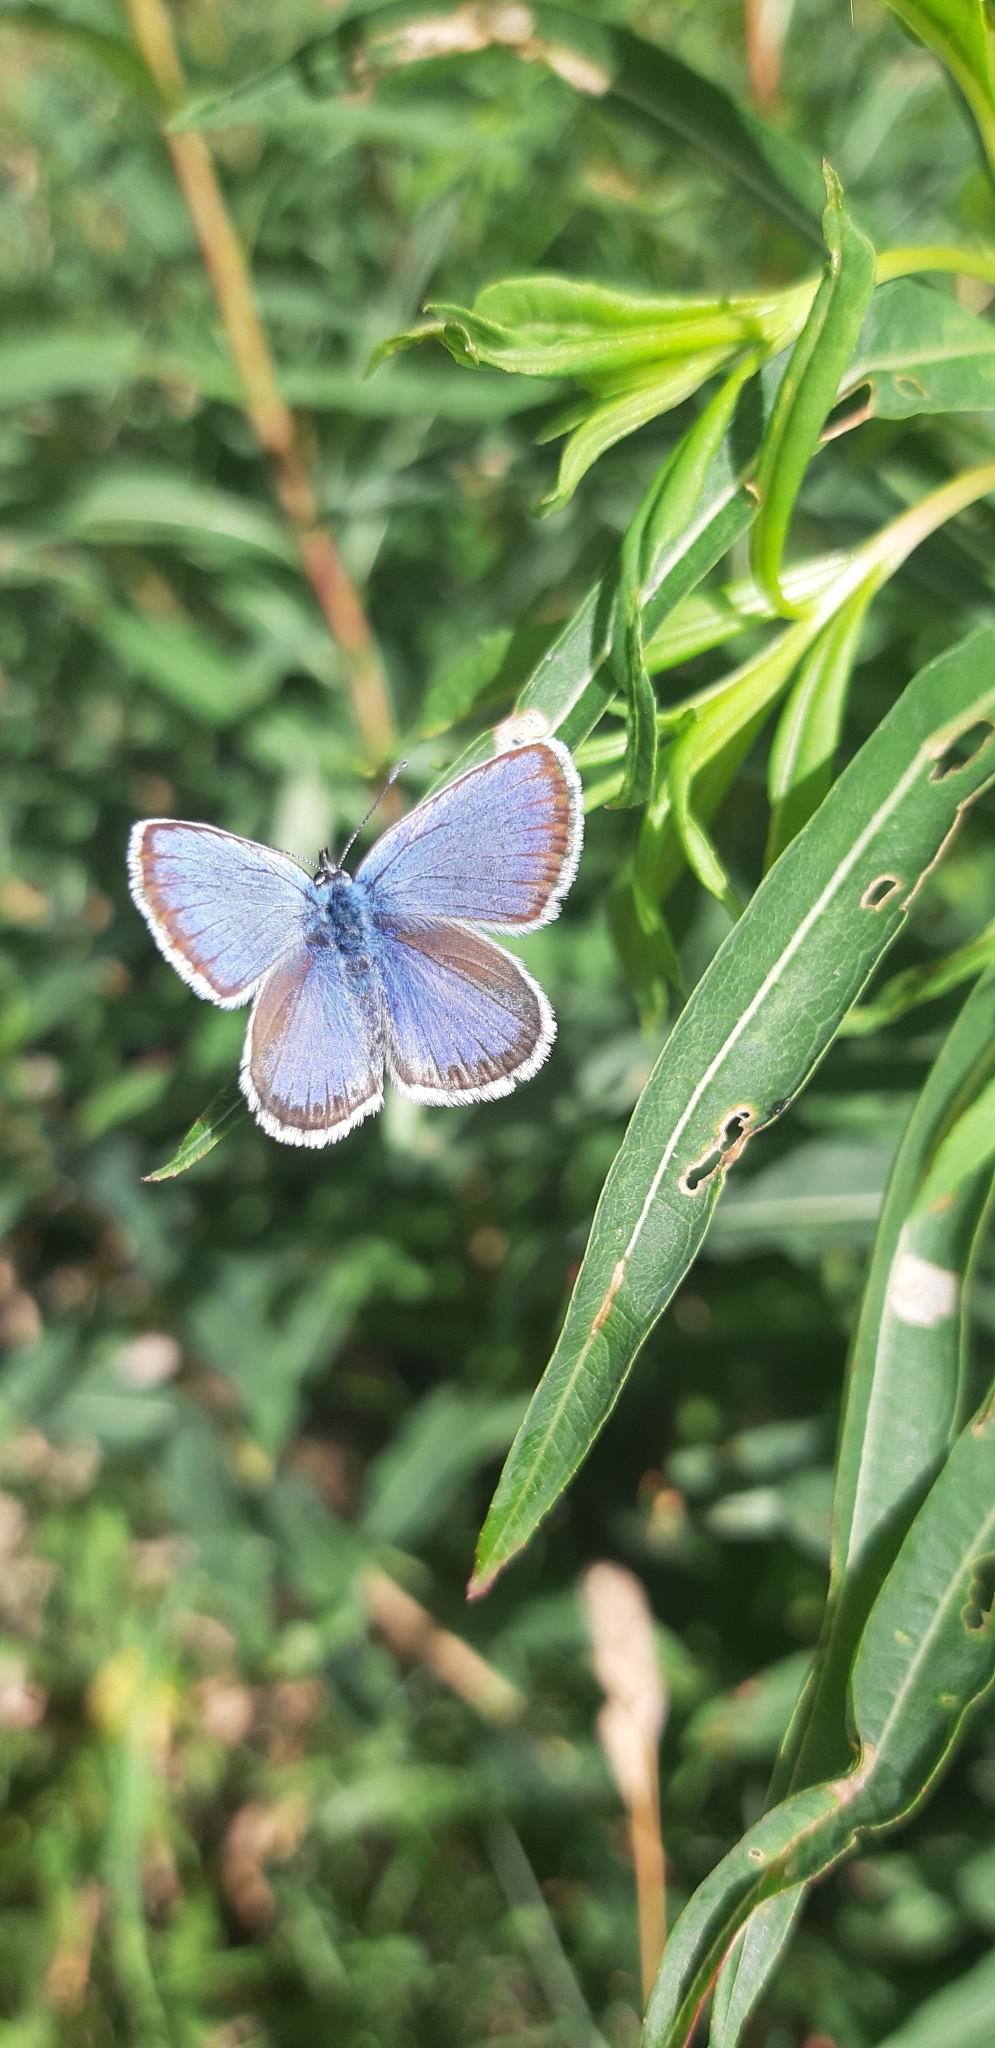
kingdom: Animalia
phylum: Arthropoda
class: Insecta
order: Lepidoptera
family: Lycaenidae
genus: Plebejus
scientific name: Plebejus argus
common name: Silver-studded blue
